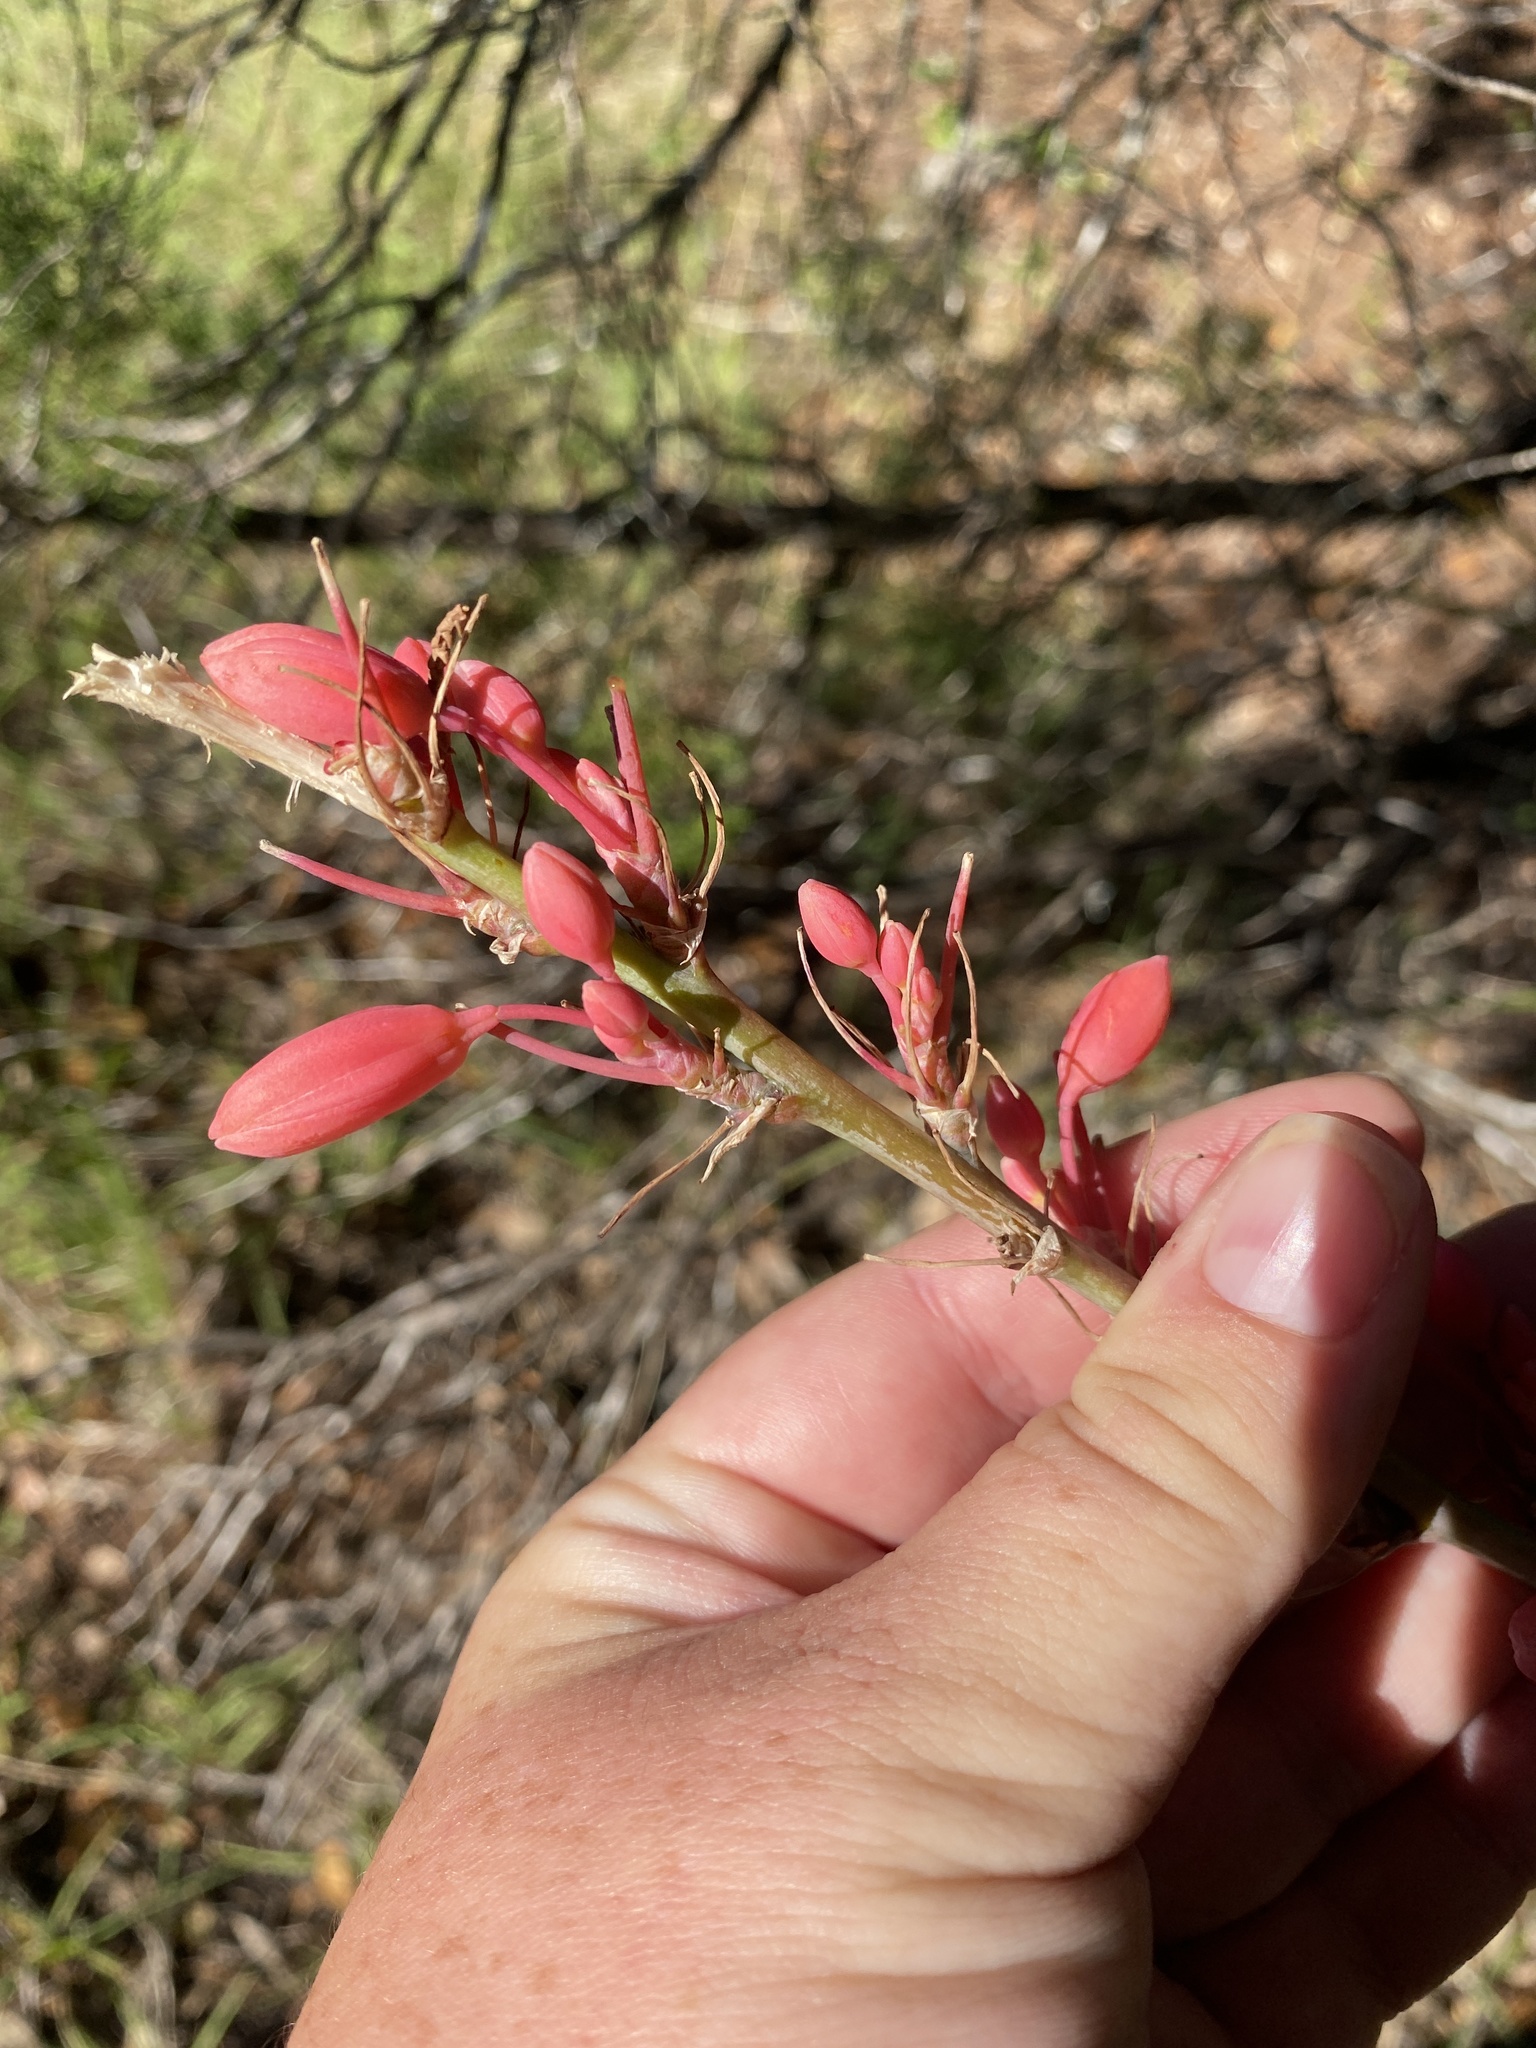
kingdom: Plantae
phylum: Tracheophyta
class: Liliopsida
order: Asparagales
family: Asparagaceae
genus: Hesperaloe
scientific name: Hesperaloe parviflora
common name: Red hesperaloe
